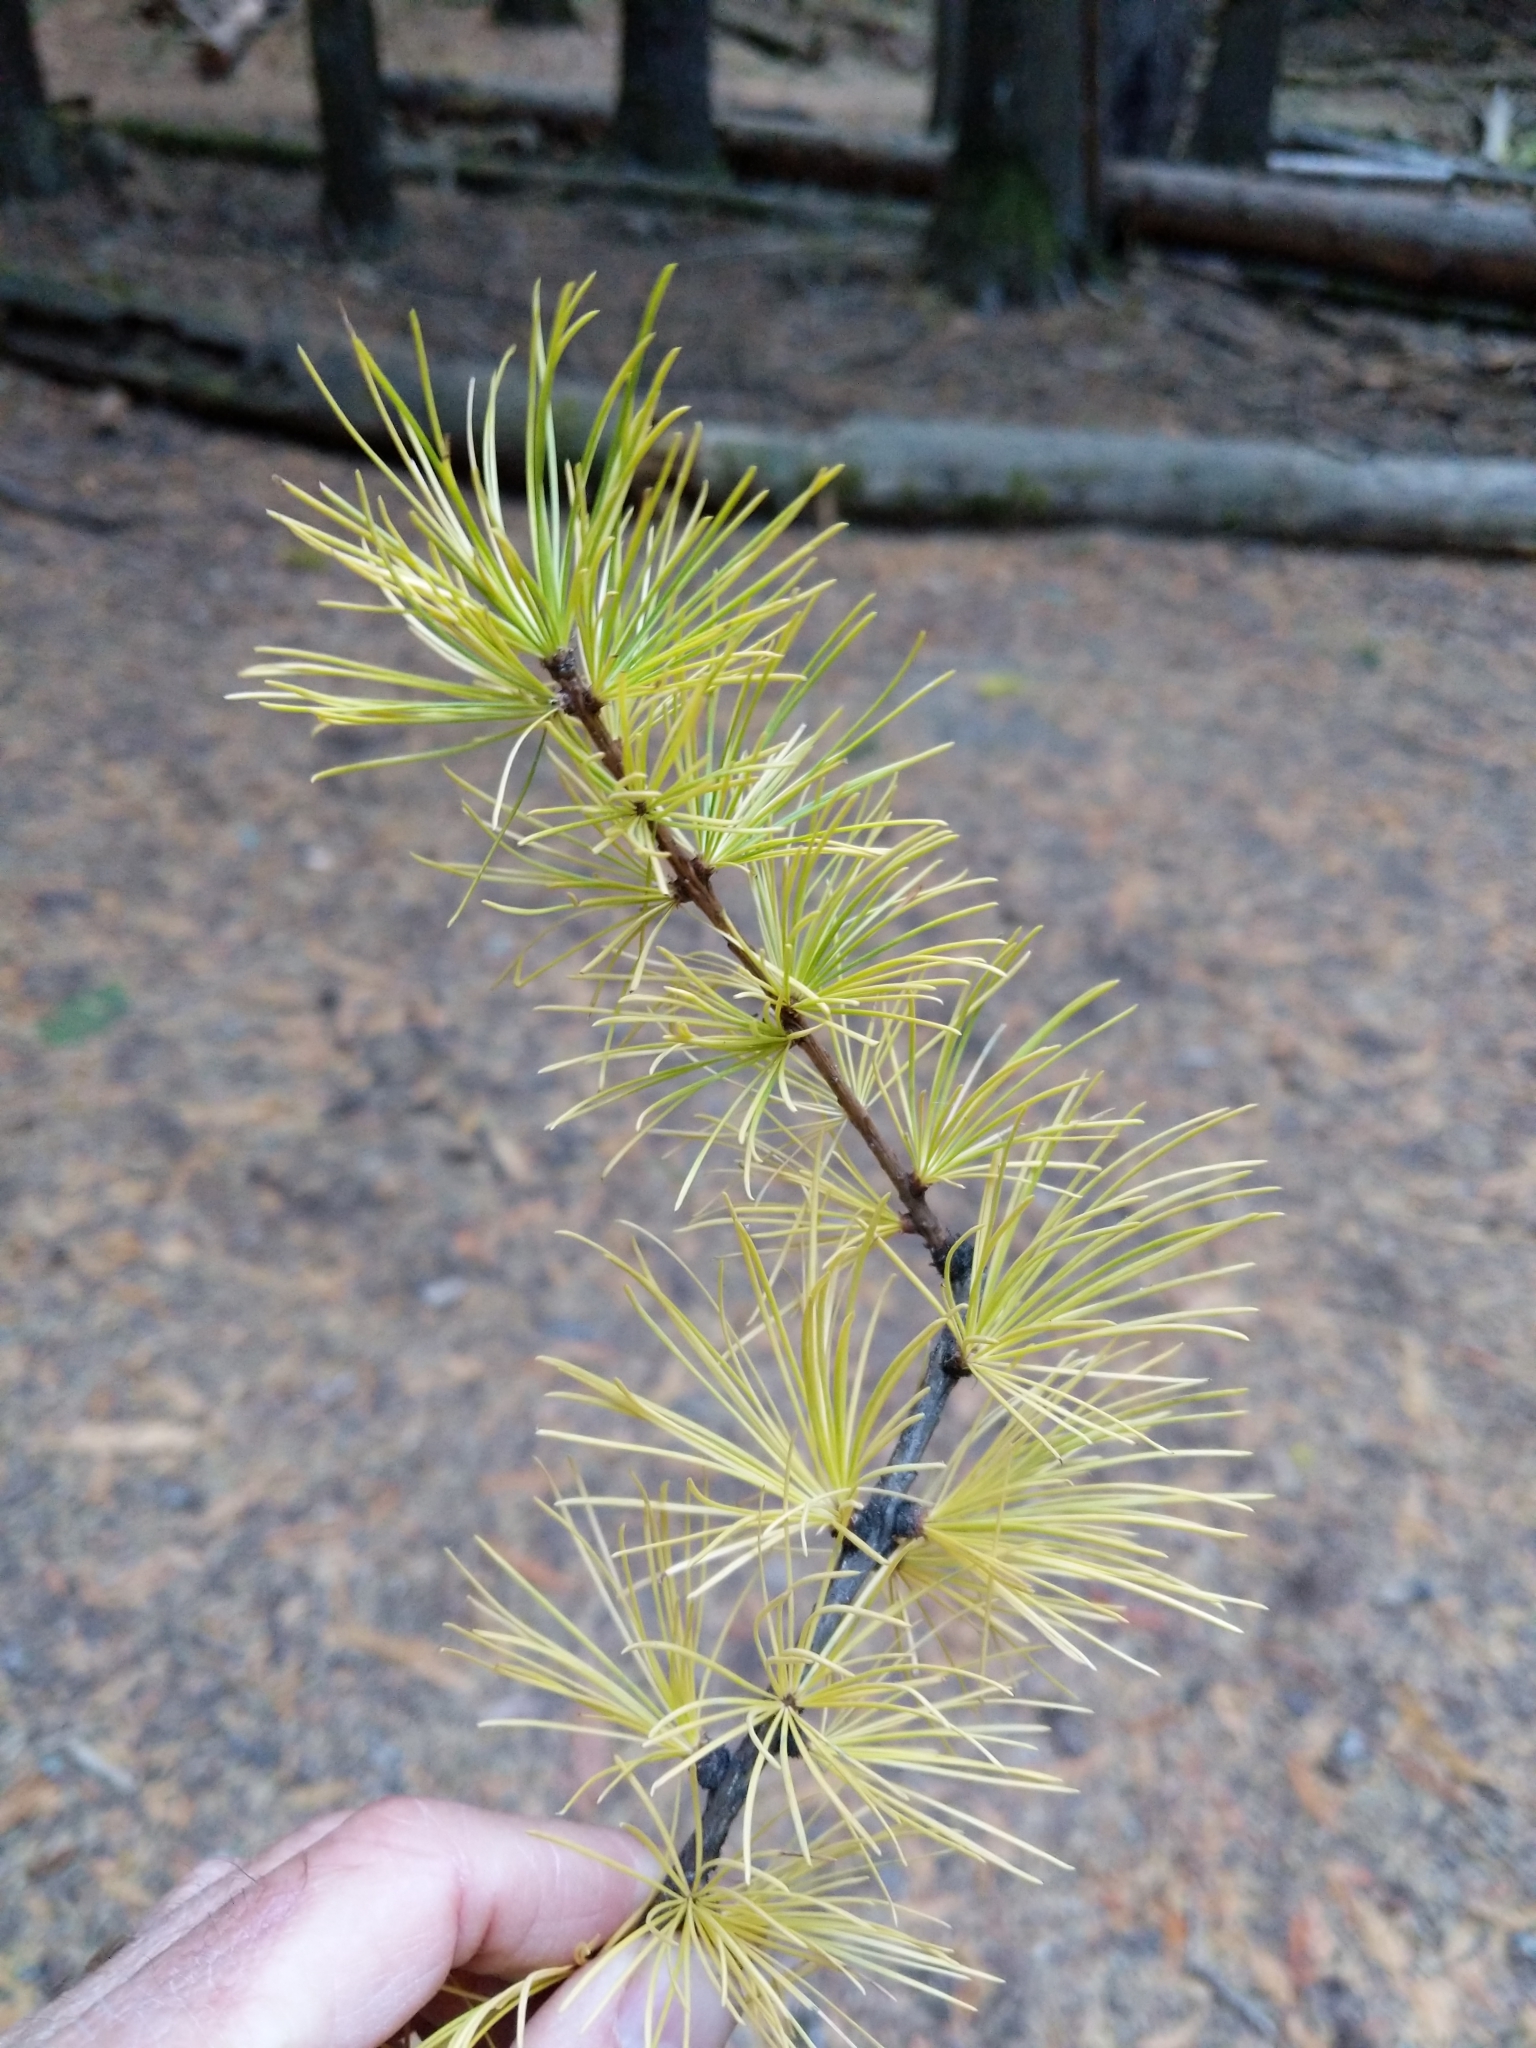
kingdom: Plantae
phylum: Tracheophyta
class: Pinopsida
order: Pinales
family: Pinaceae
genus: Larix
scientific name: Larix occidentalis
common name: Western larch
